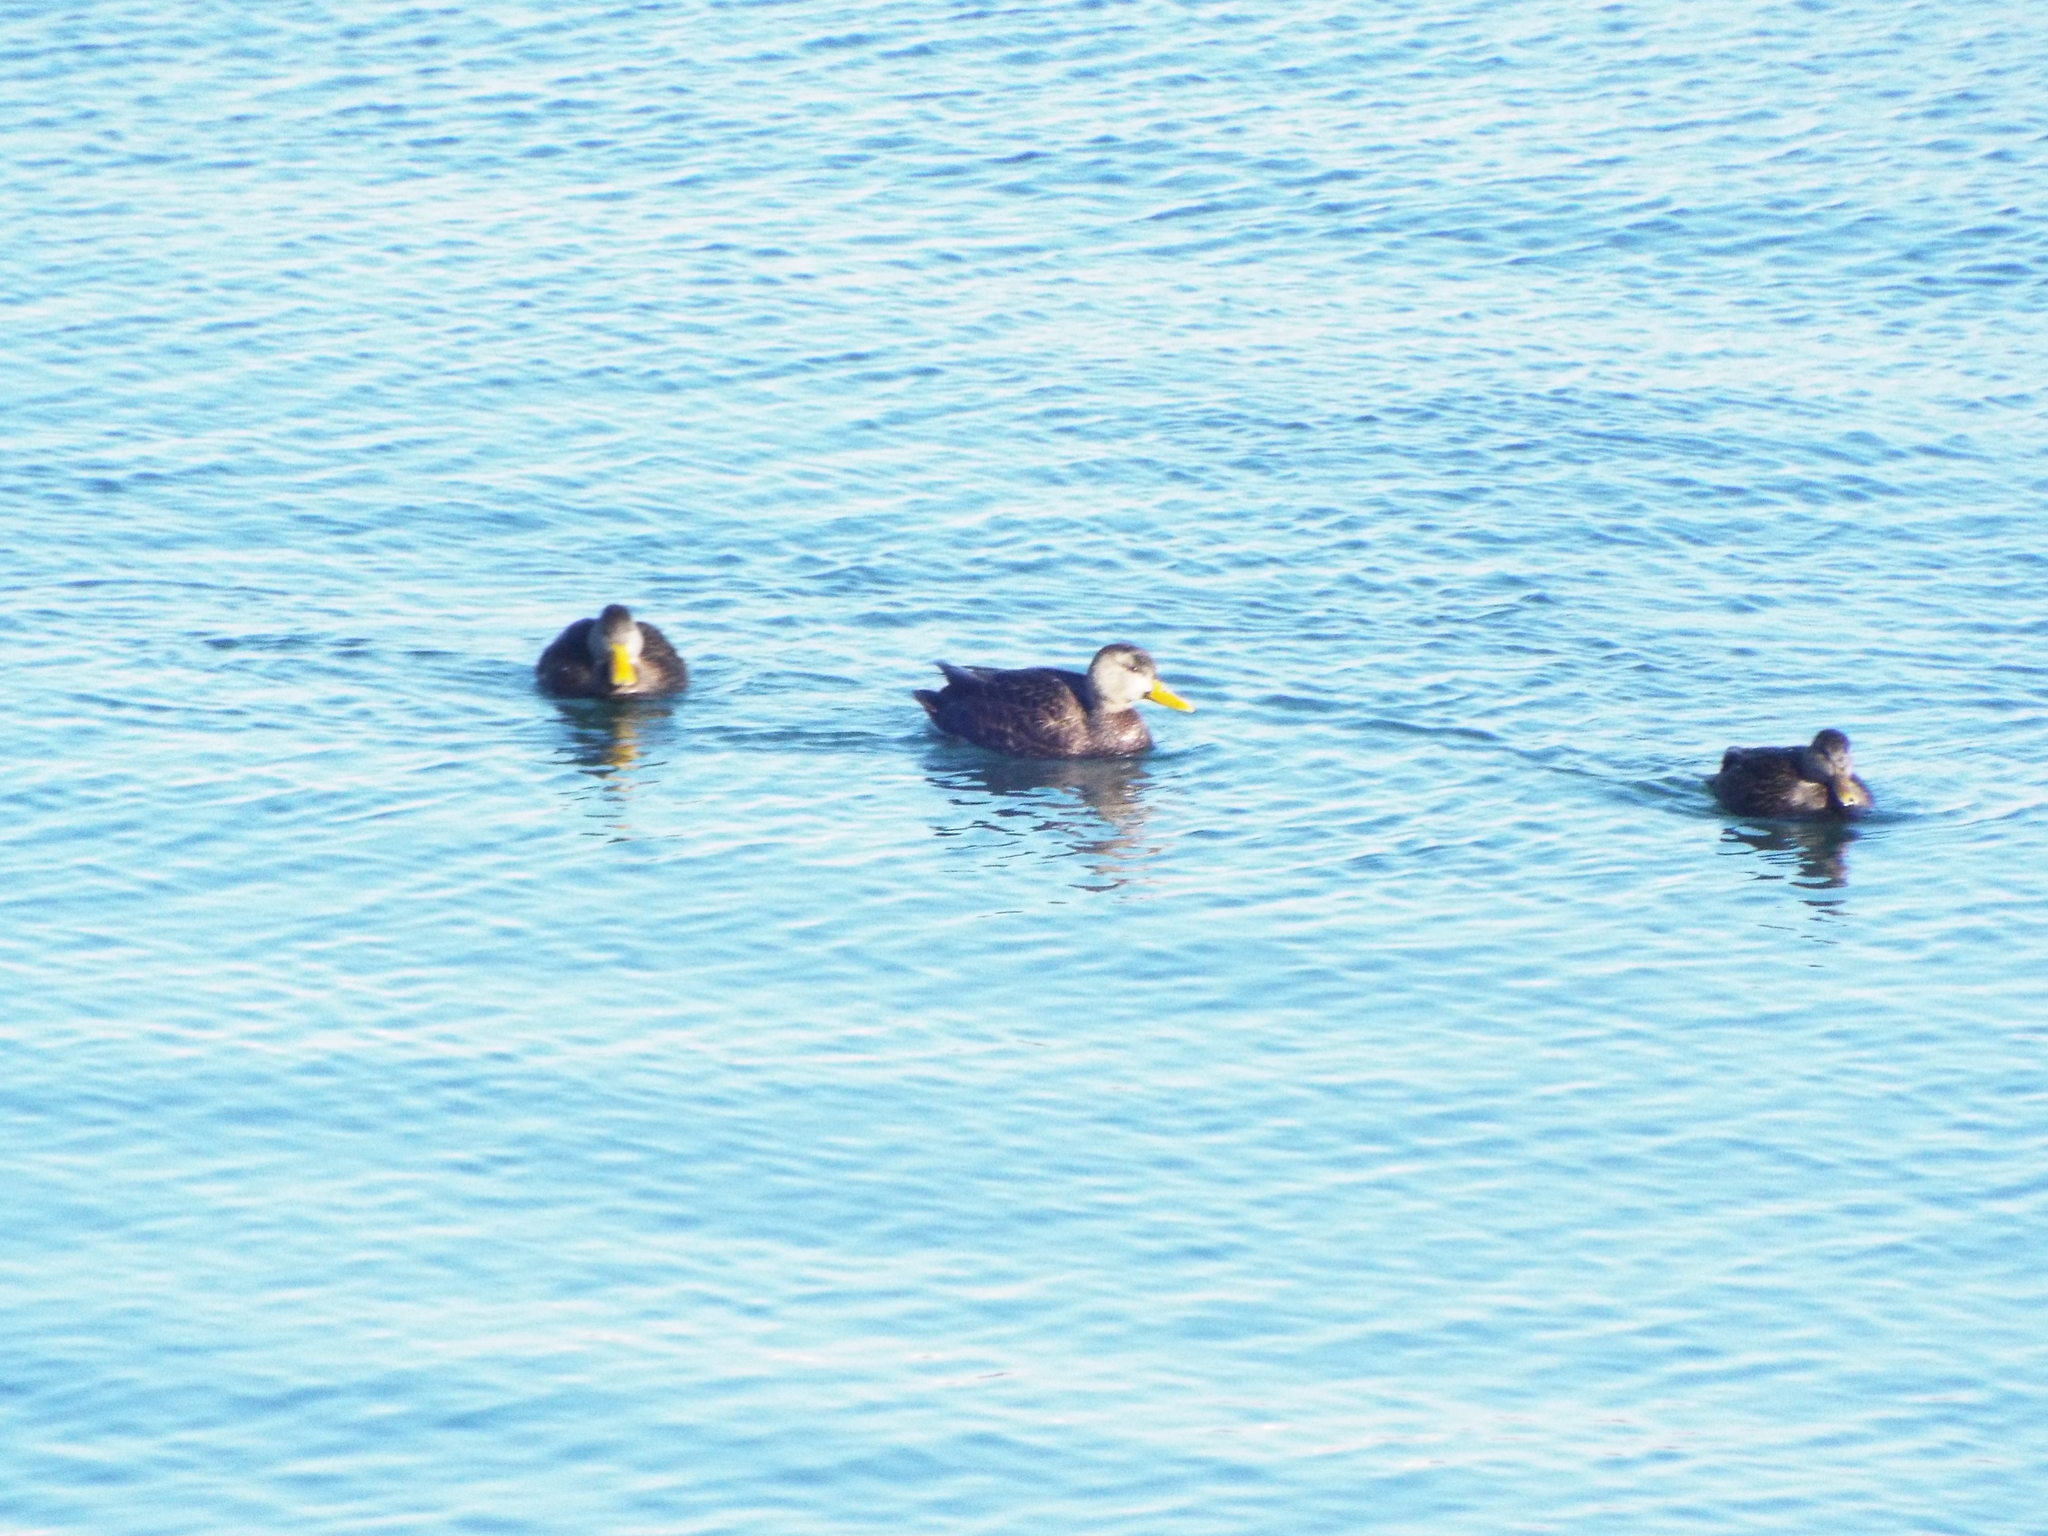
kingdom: Animalia
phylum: Chordata
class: Aves
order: Anseriformes
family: Anatidae
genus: Anas
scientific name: Anas rubripes
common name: American black duck
